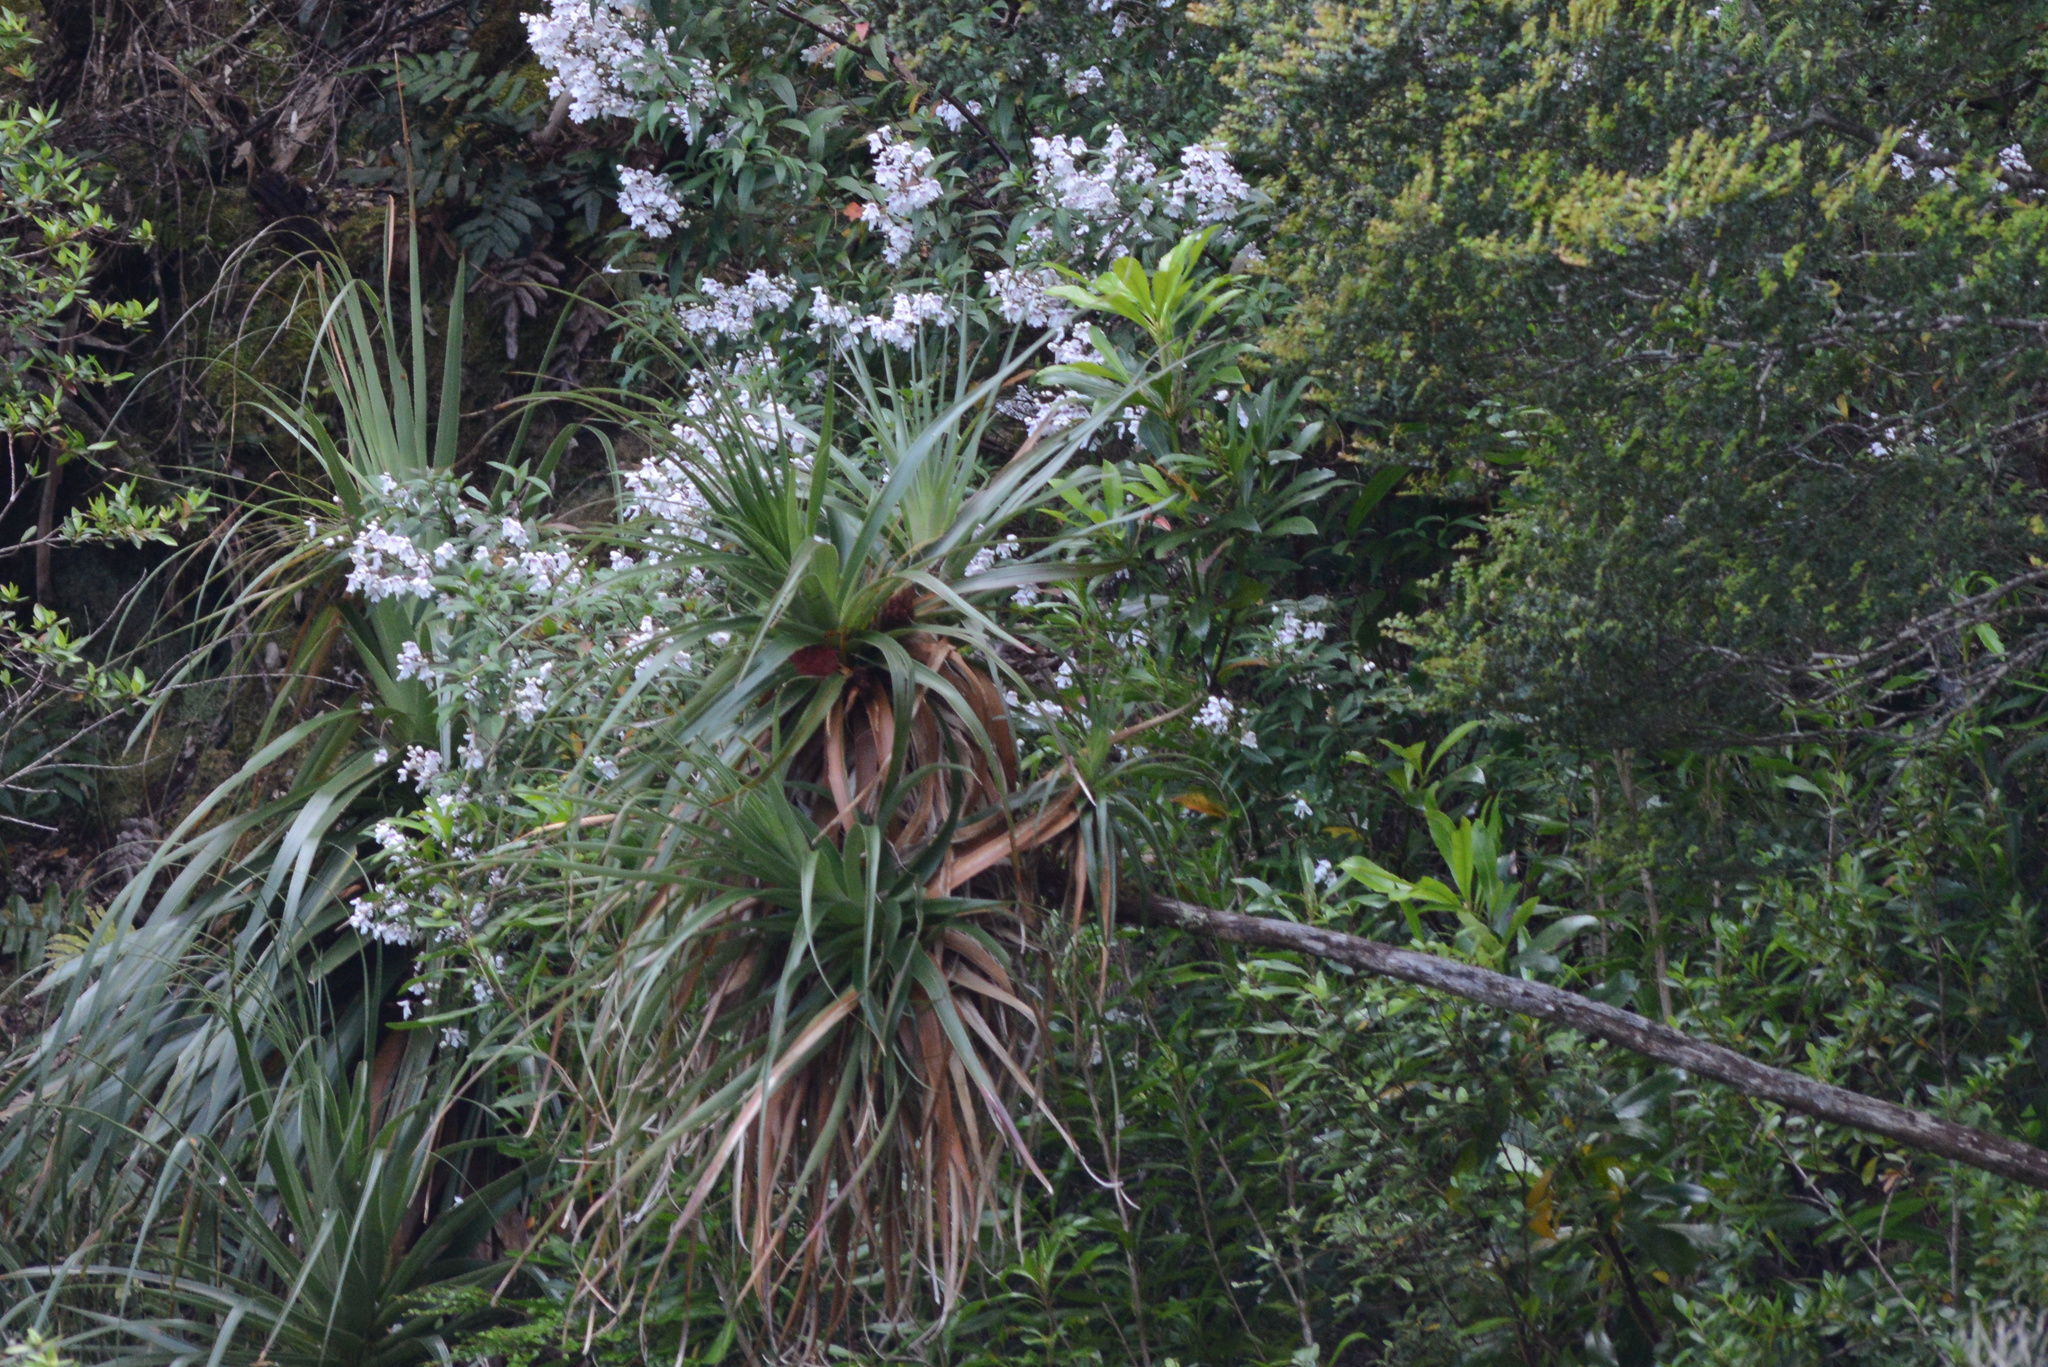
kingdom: Plantae
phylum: Tracheophyta
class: Magnoliopsida
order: Ericales
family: Ericaceae
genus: Dracophyllum
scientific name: Dracophyllum pandanifolium
